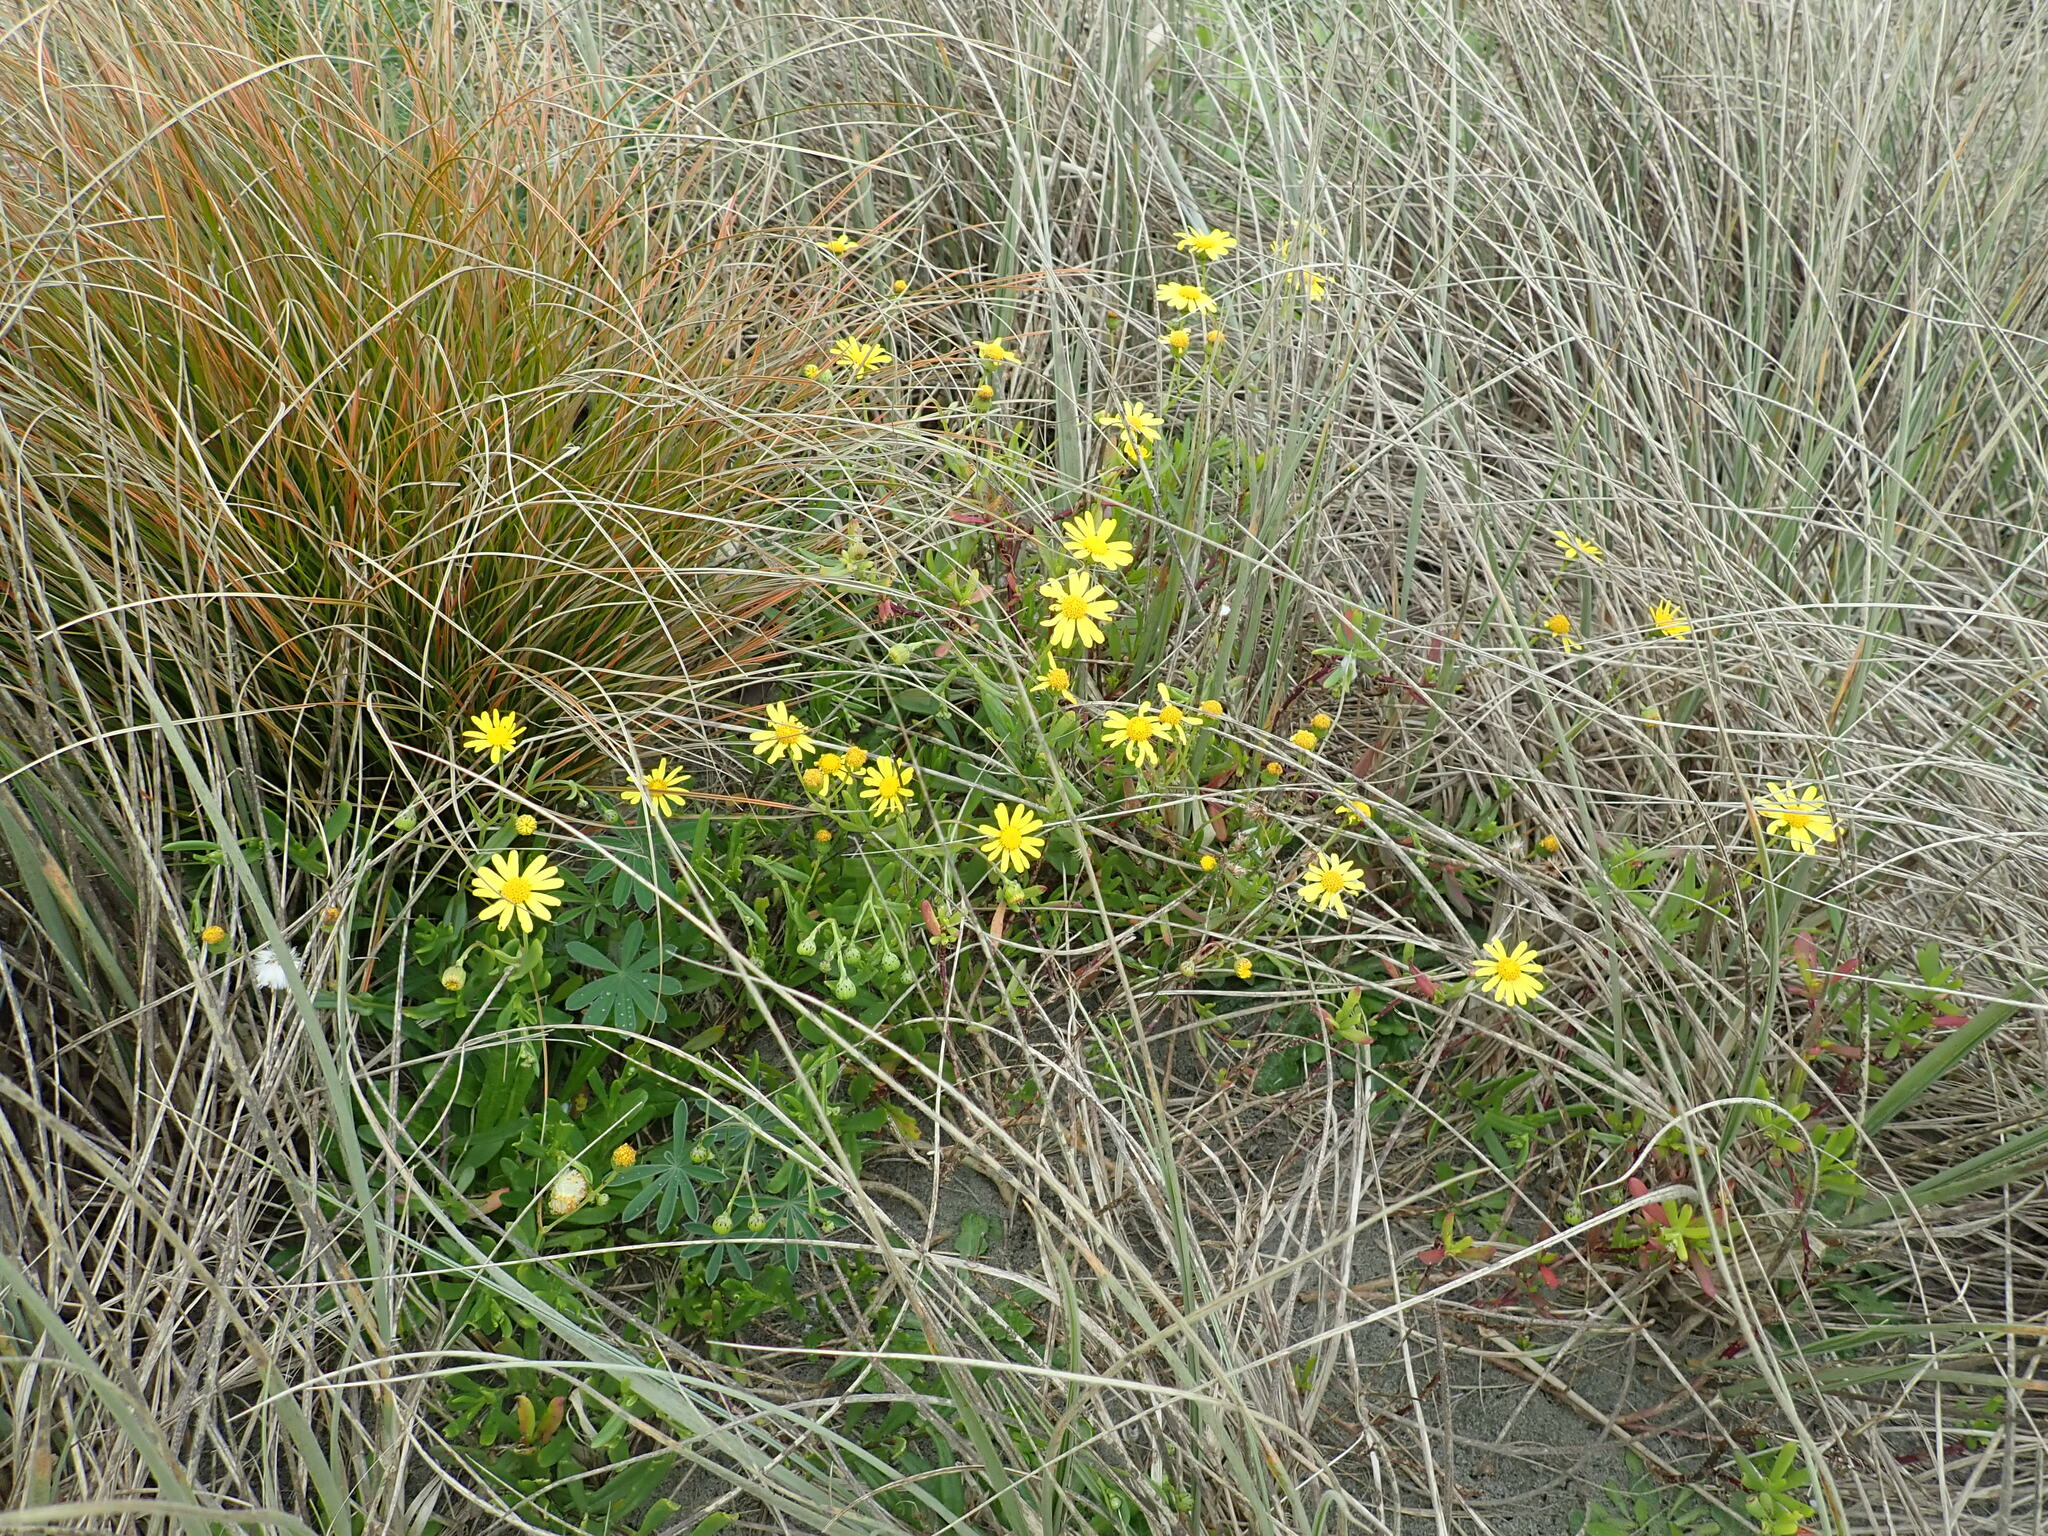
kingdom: Plantae
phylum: Tracheophyta
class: Magnoliopsida
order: Asterales
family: Asteraceae
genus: Senecio
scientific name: Senecio skirrhodon
